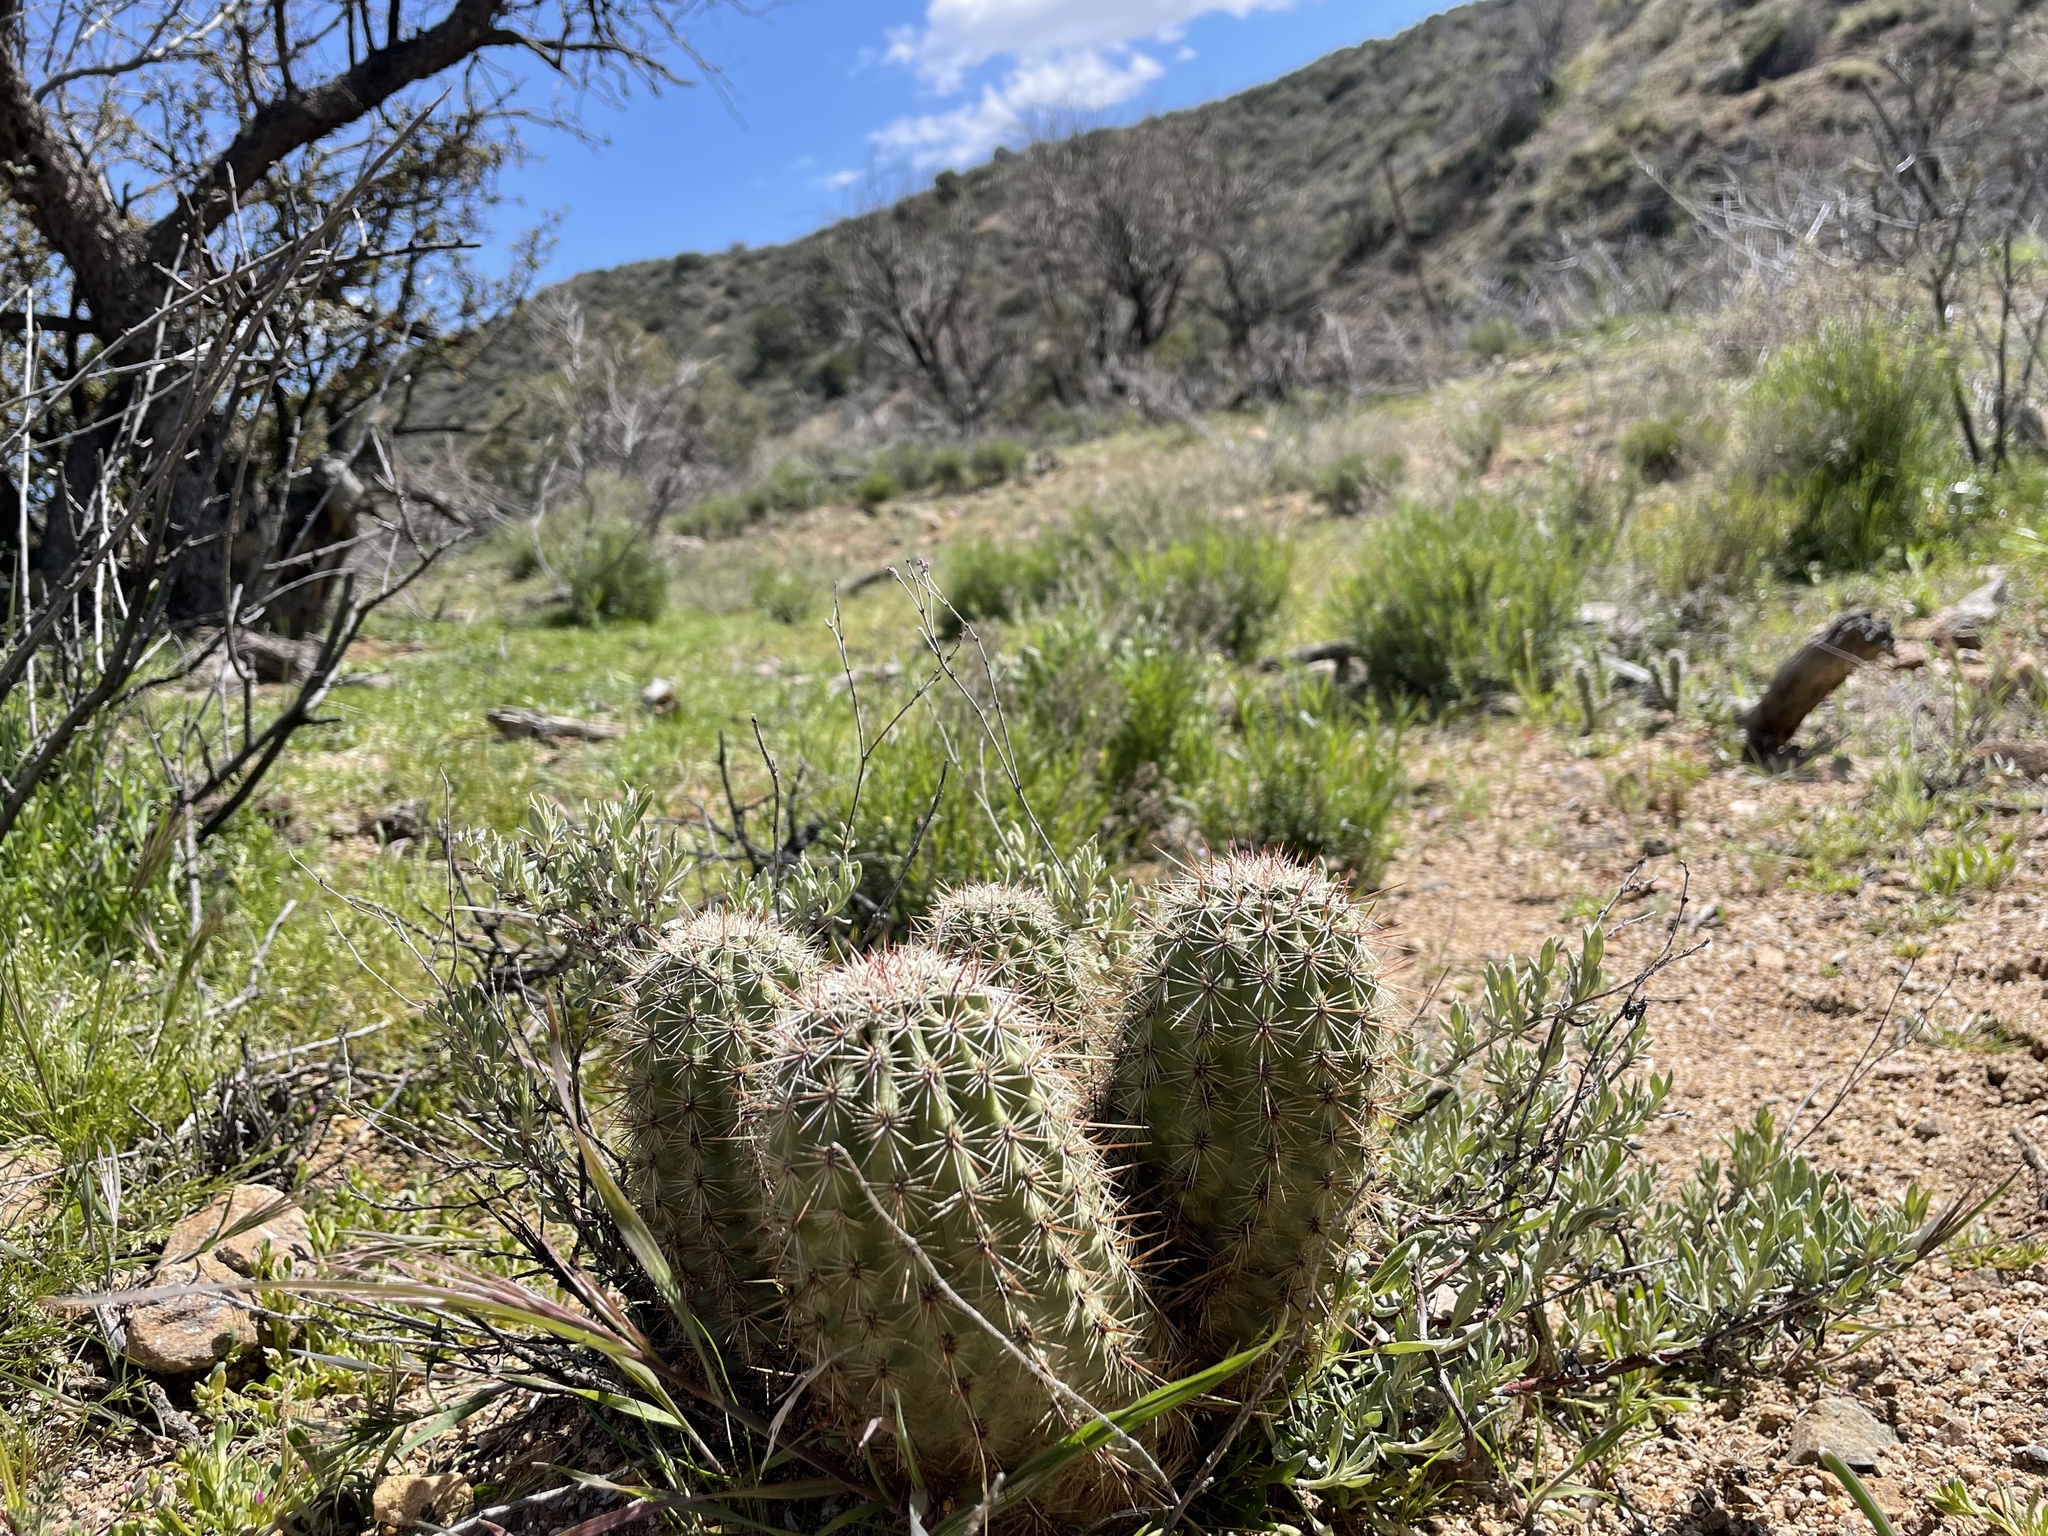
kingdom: Plantae
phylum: Tracheophyta
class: Magnoliopsida
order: Caryophyllales
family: Cactaceae
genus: Echinocereus
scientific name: Echinocereus bonkerae
